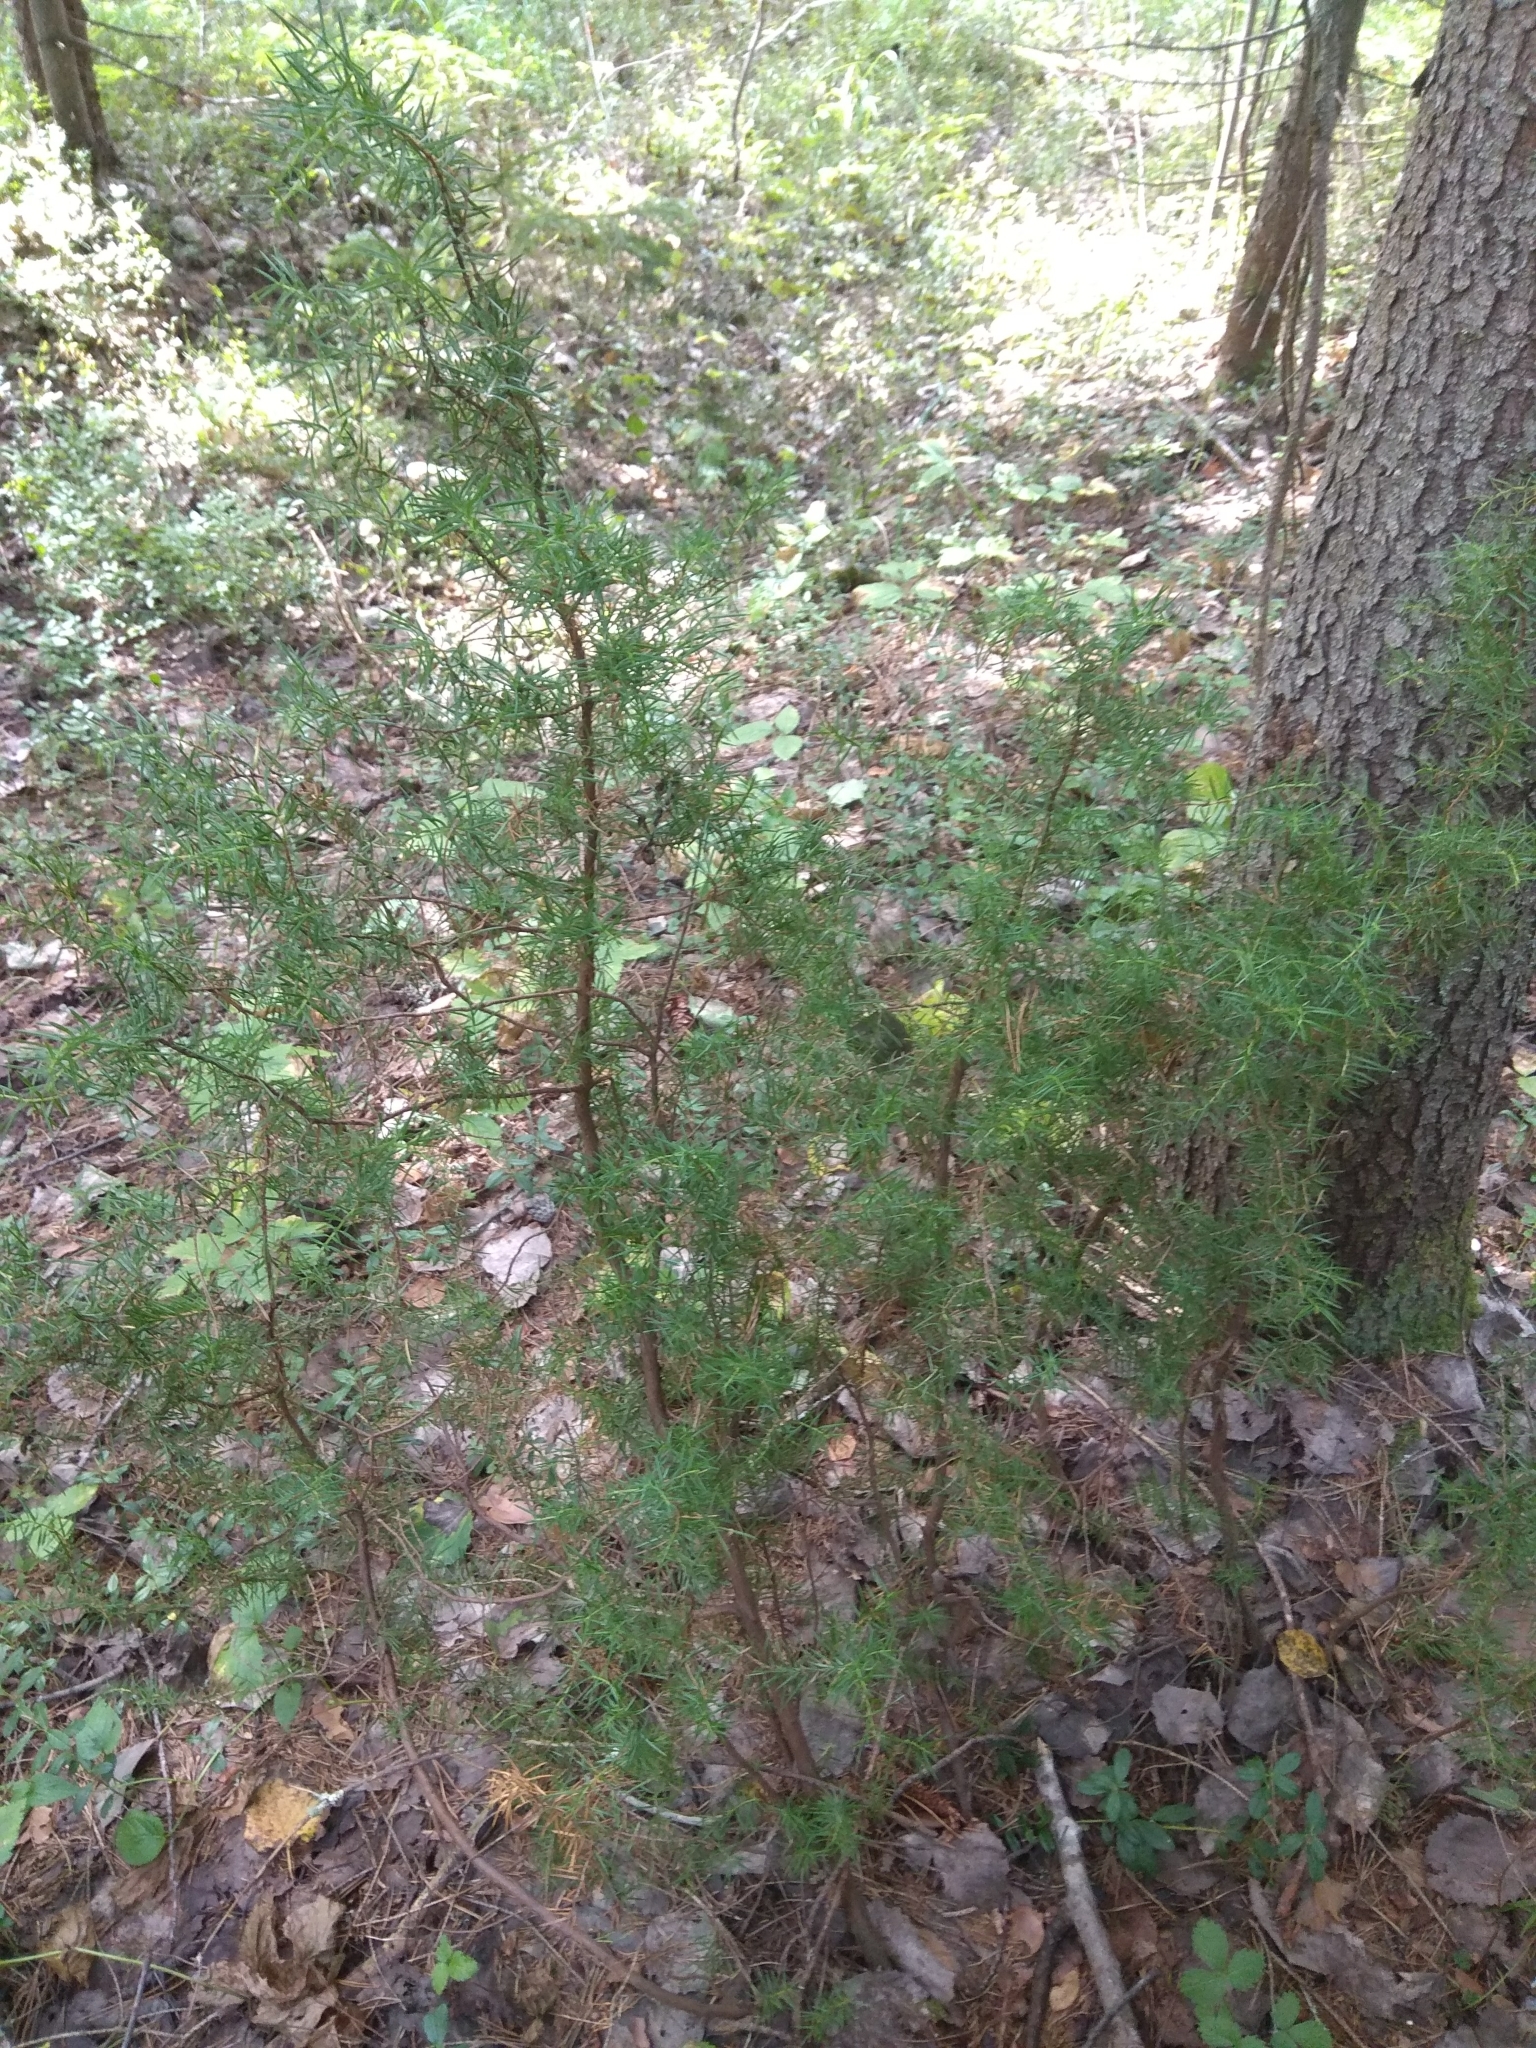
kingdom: Plantae
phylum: Tracheophyta
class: Pinopsida
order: Pinales
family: Cupressaceae
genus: Juniperus
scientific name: Juniperus communis
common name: Common juniper
